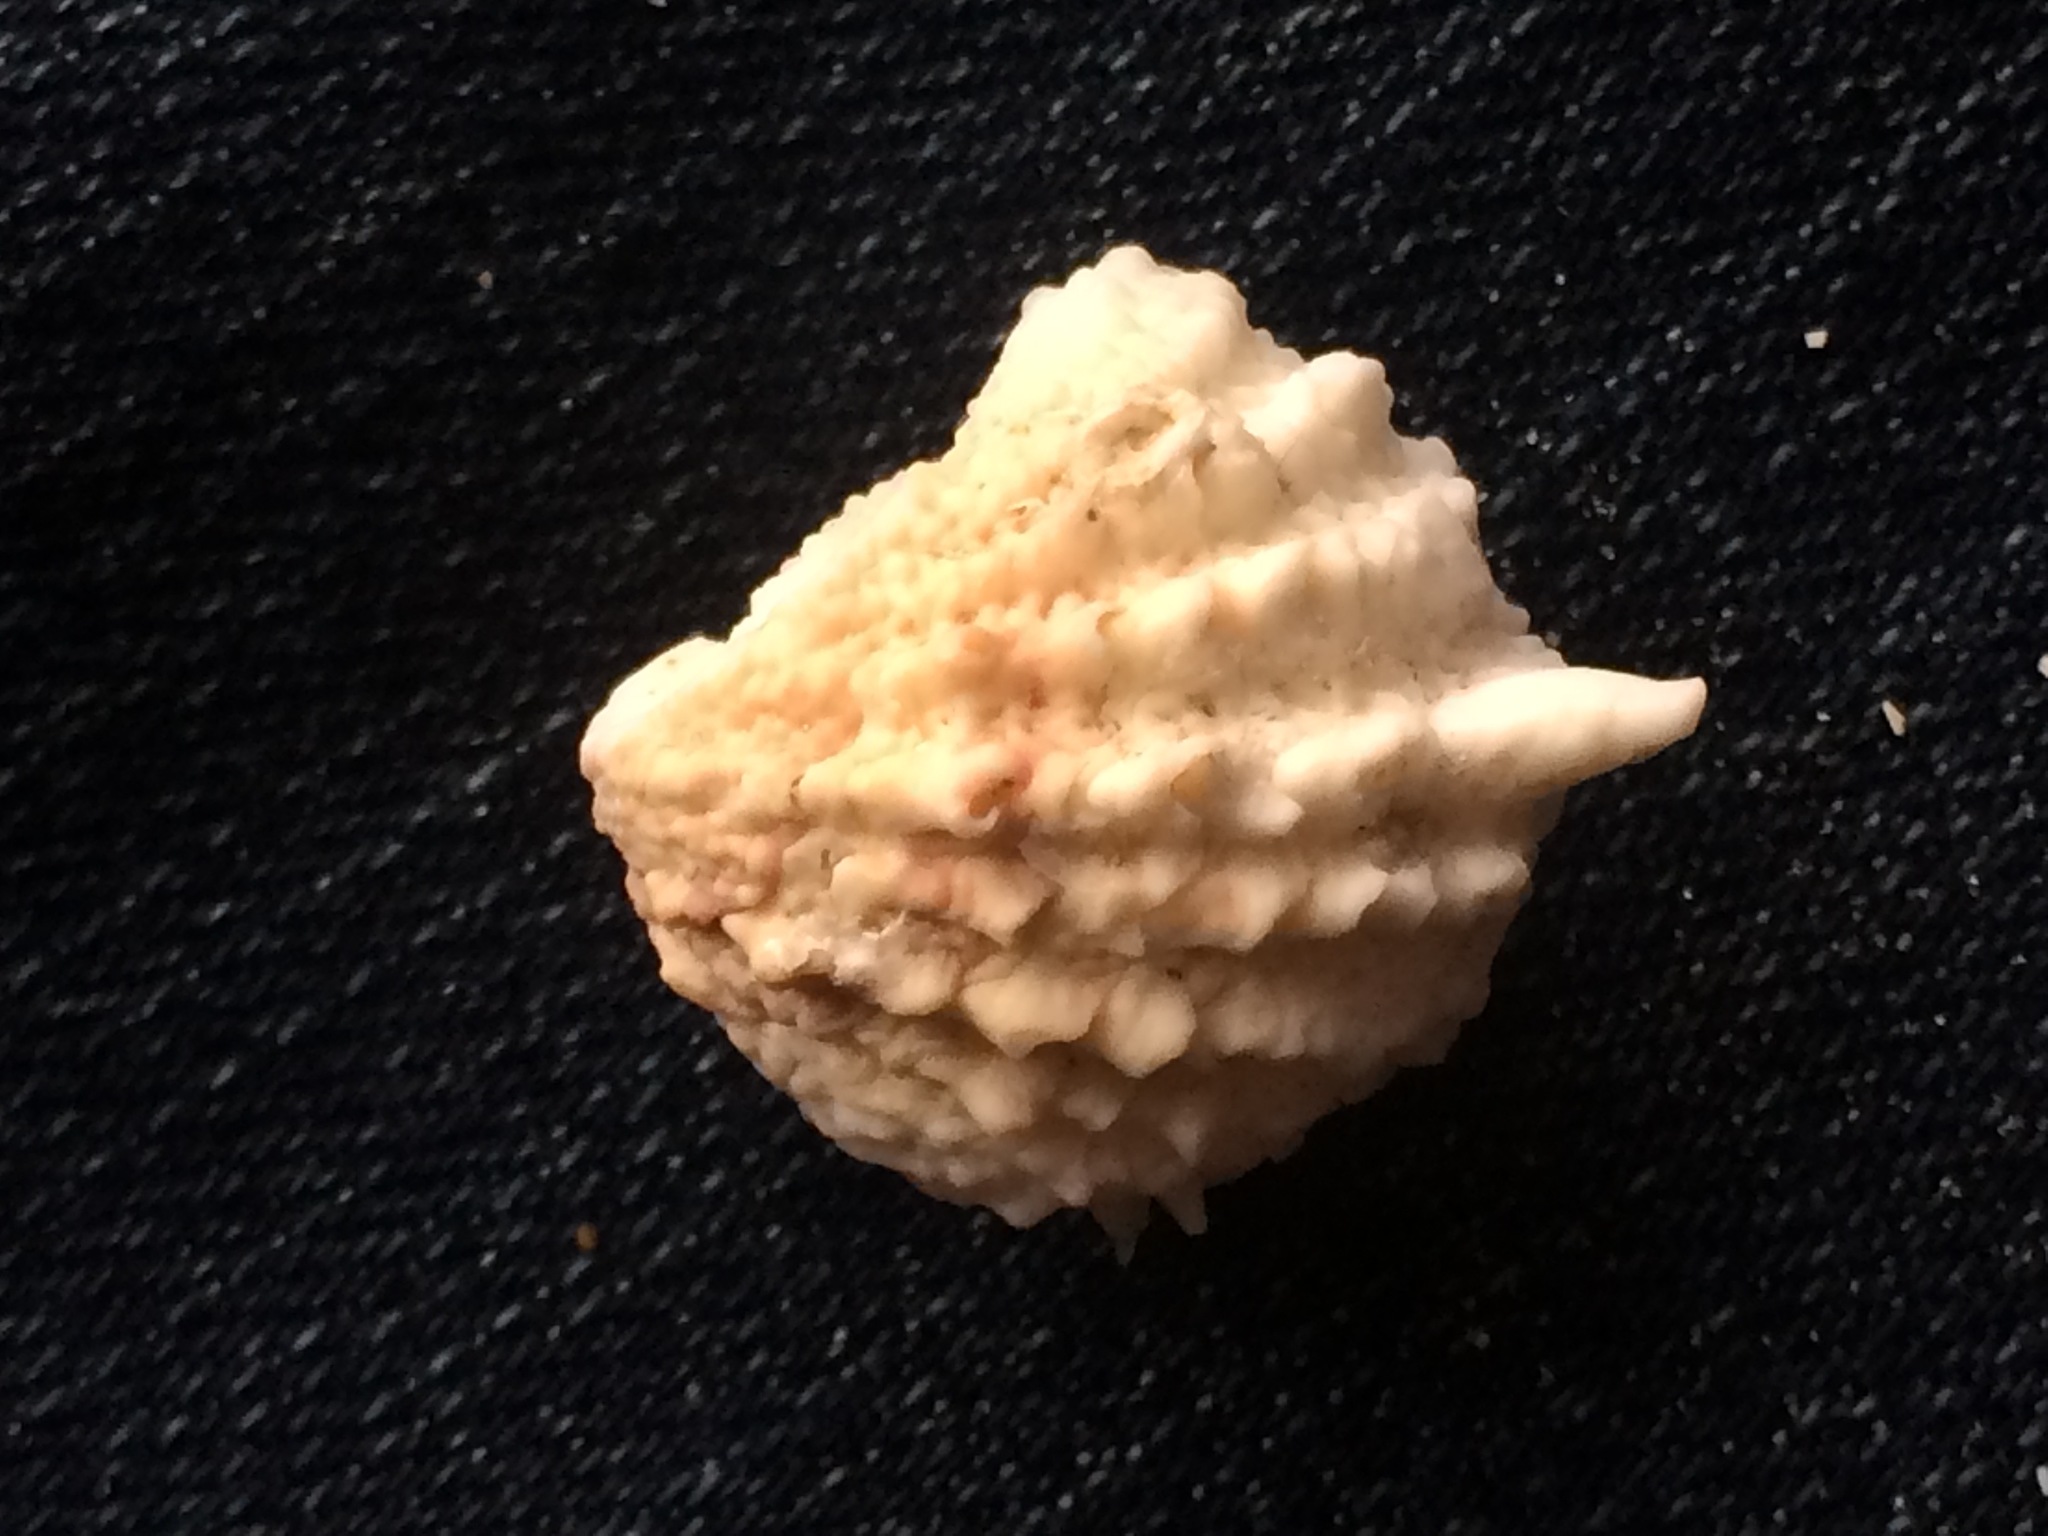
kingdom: Animalia
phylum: Mollusca
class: Bivalvia
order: Venerida
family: Chamidae
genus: Arcinella
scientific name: Arcinella cornuta
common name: Florida spiny jewel box
